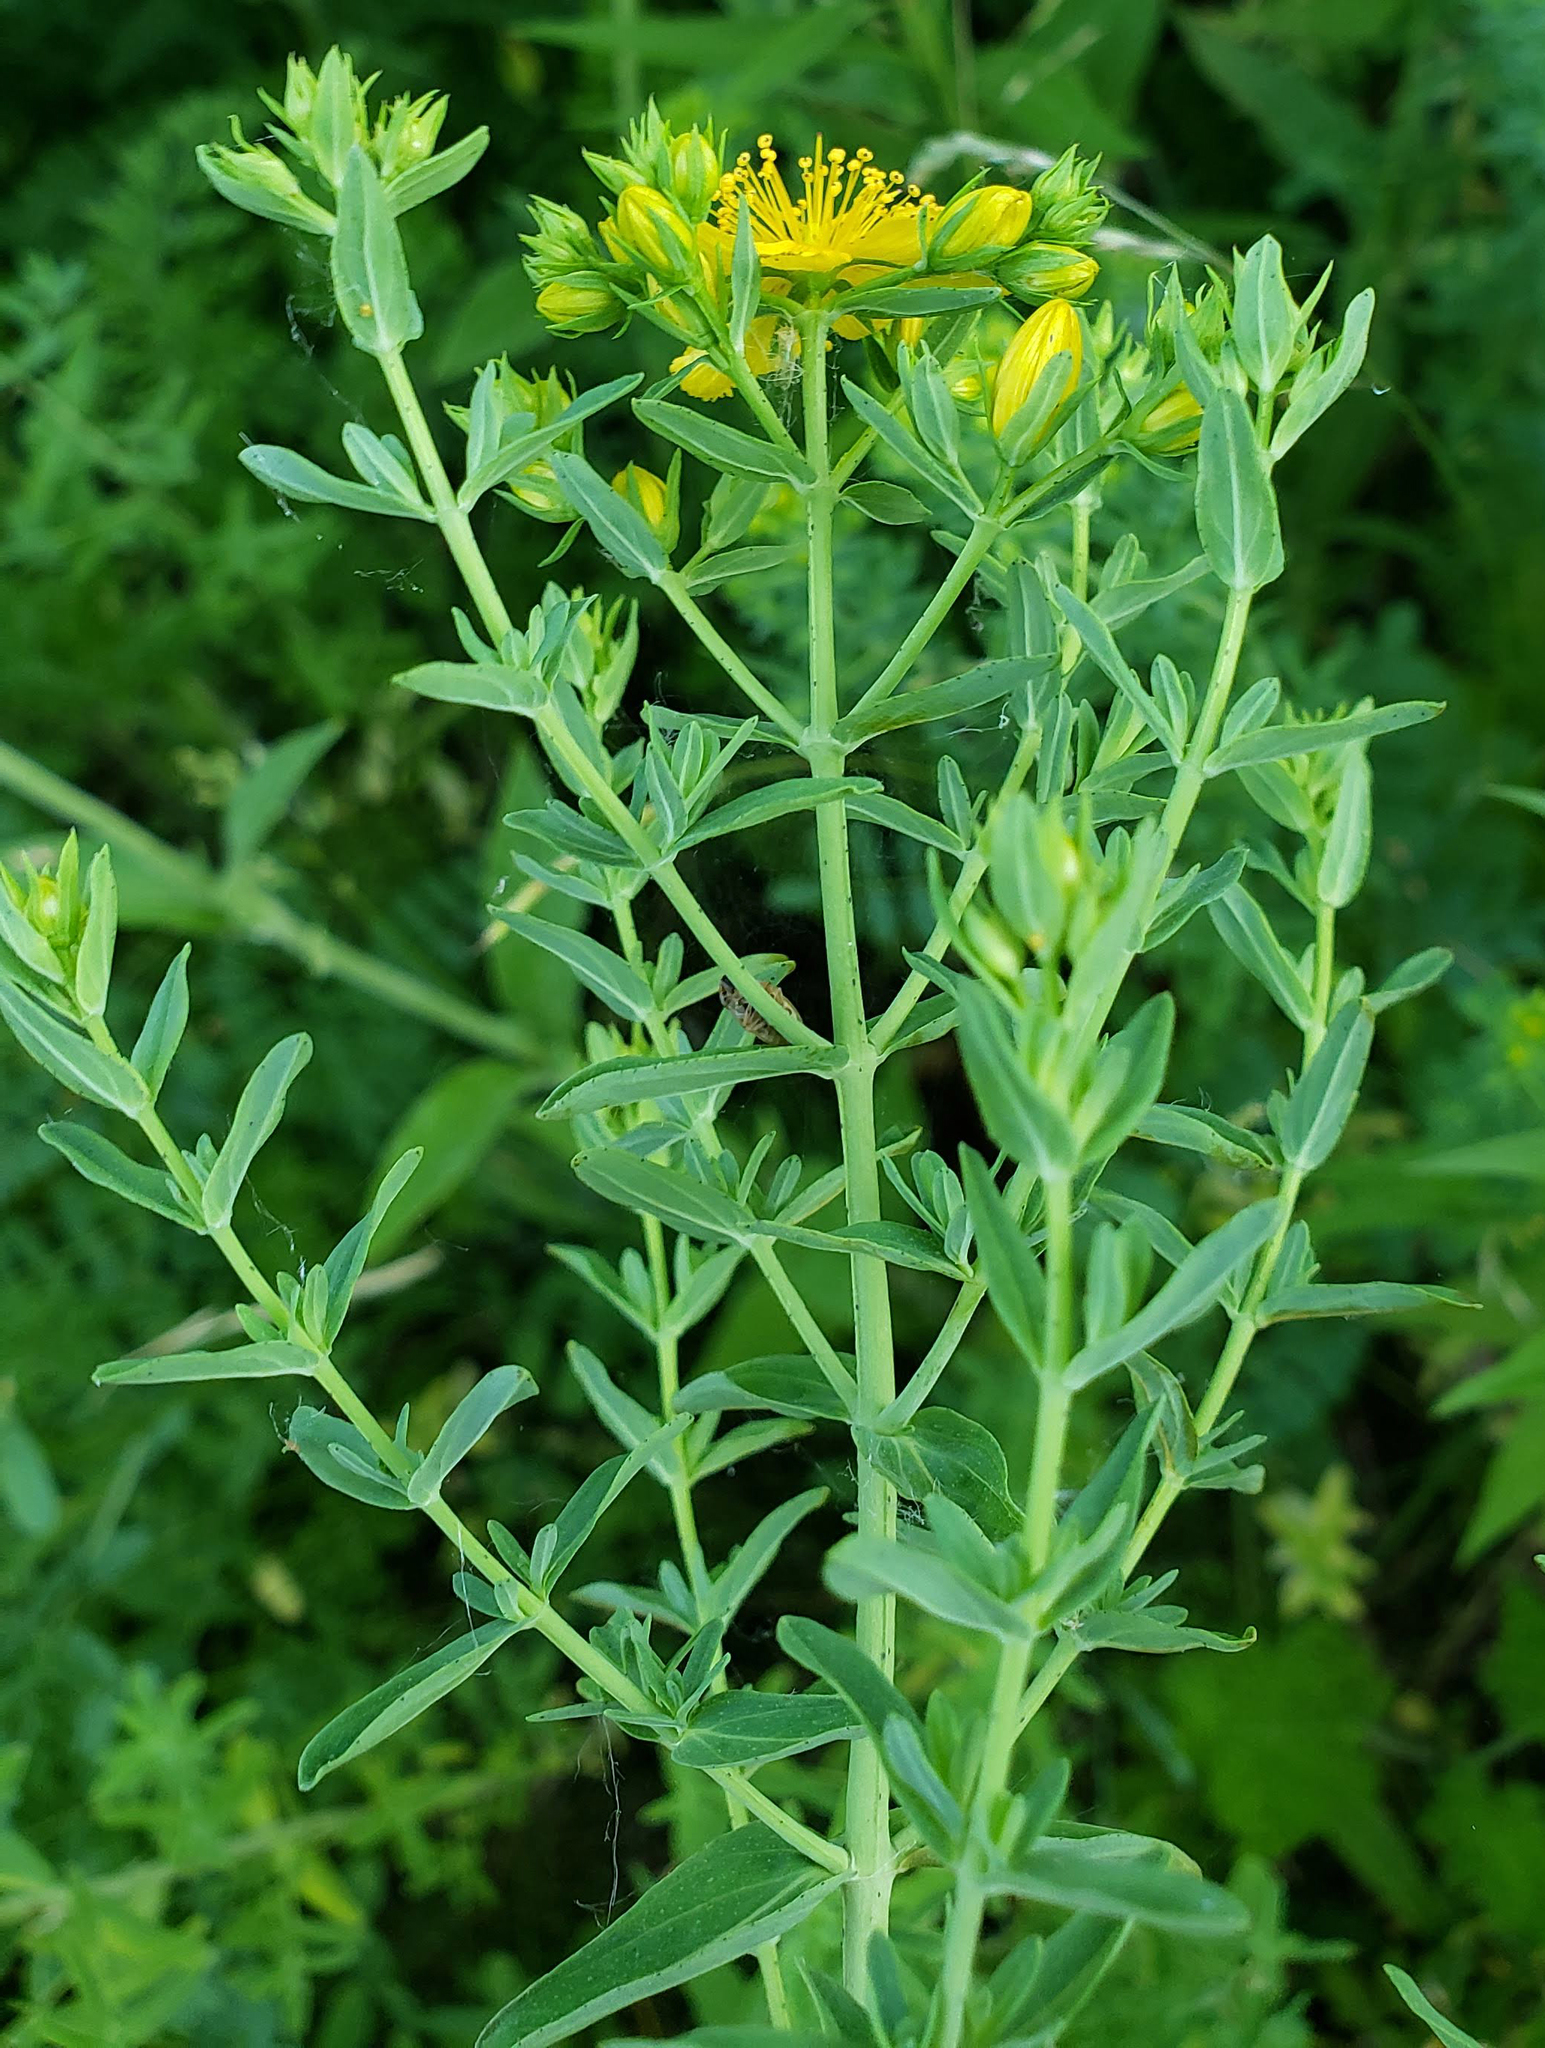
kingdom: Plantae
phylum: Tracheophyta
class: Magnoliopsida
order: Malpighiales
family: Hypericaceae
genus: Hypericum
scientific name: Hypericum perforatum
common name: Common st. johnswort
